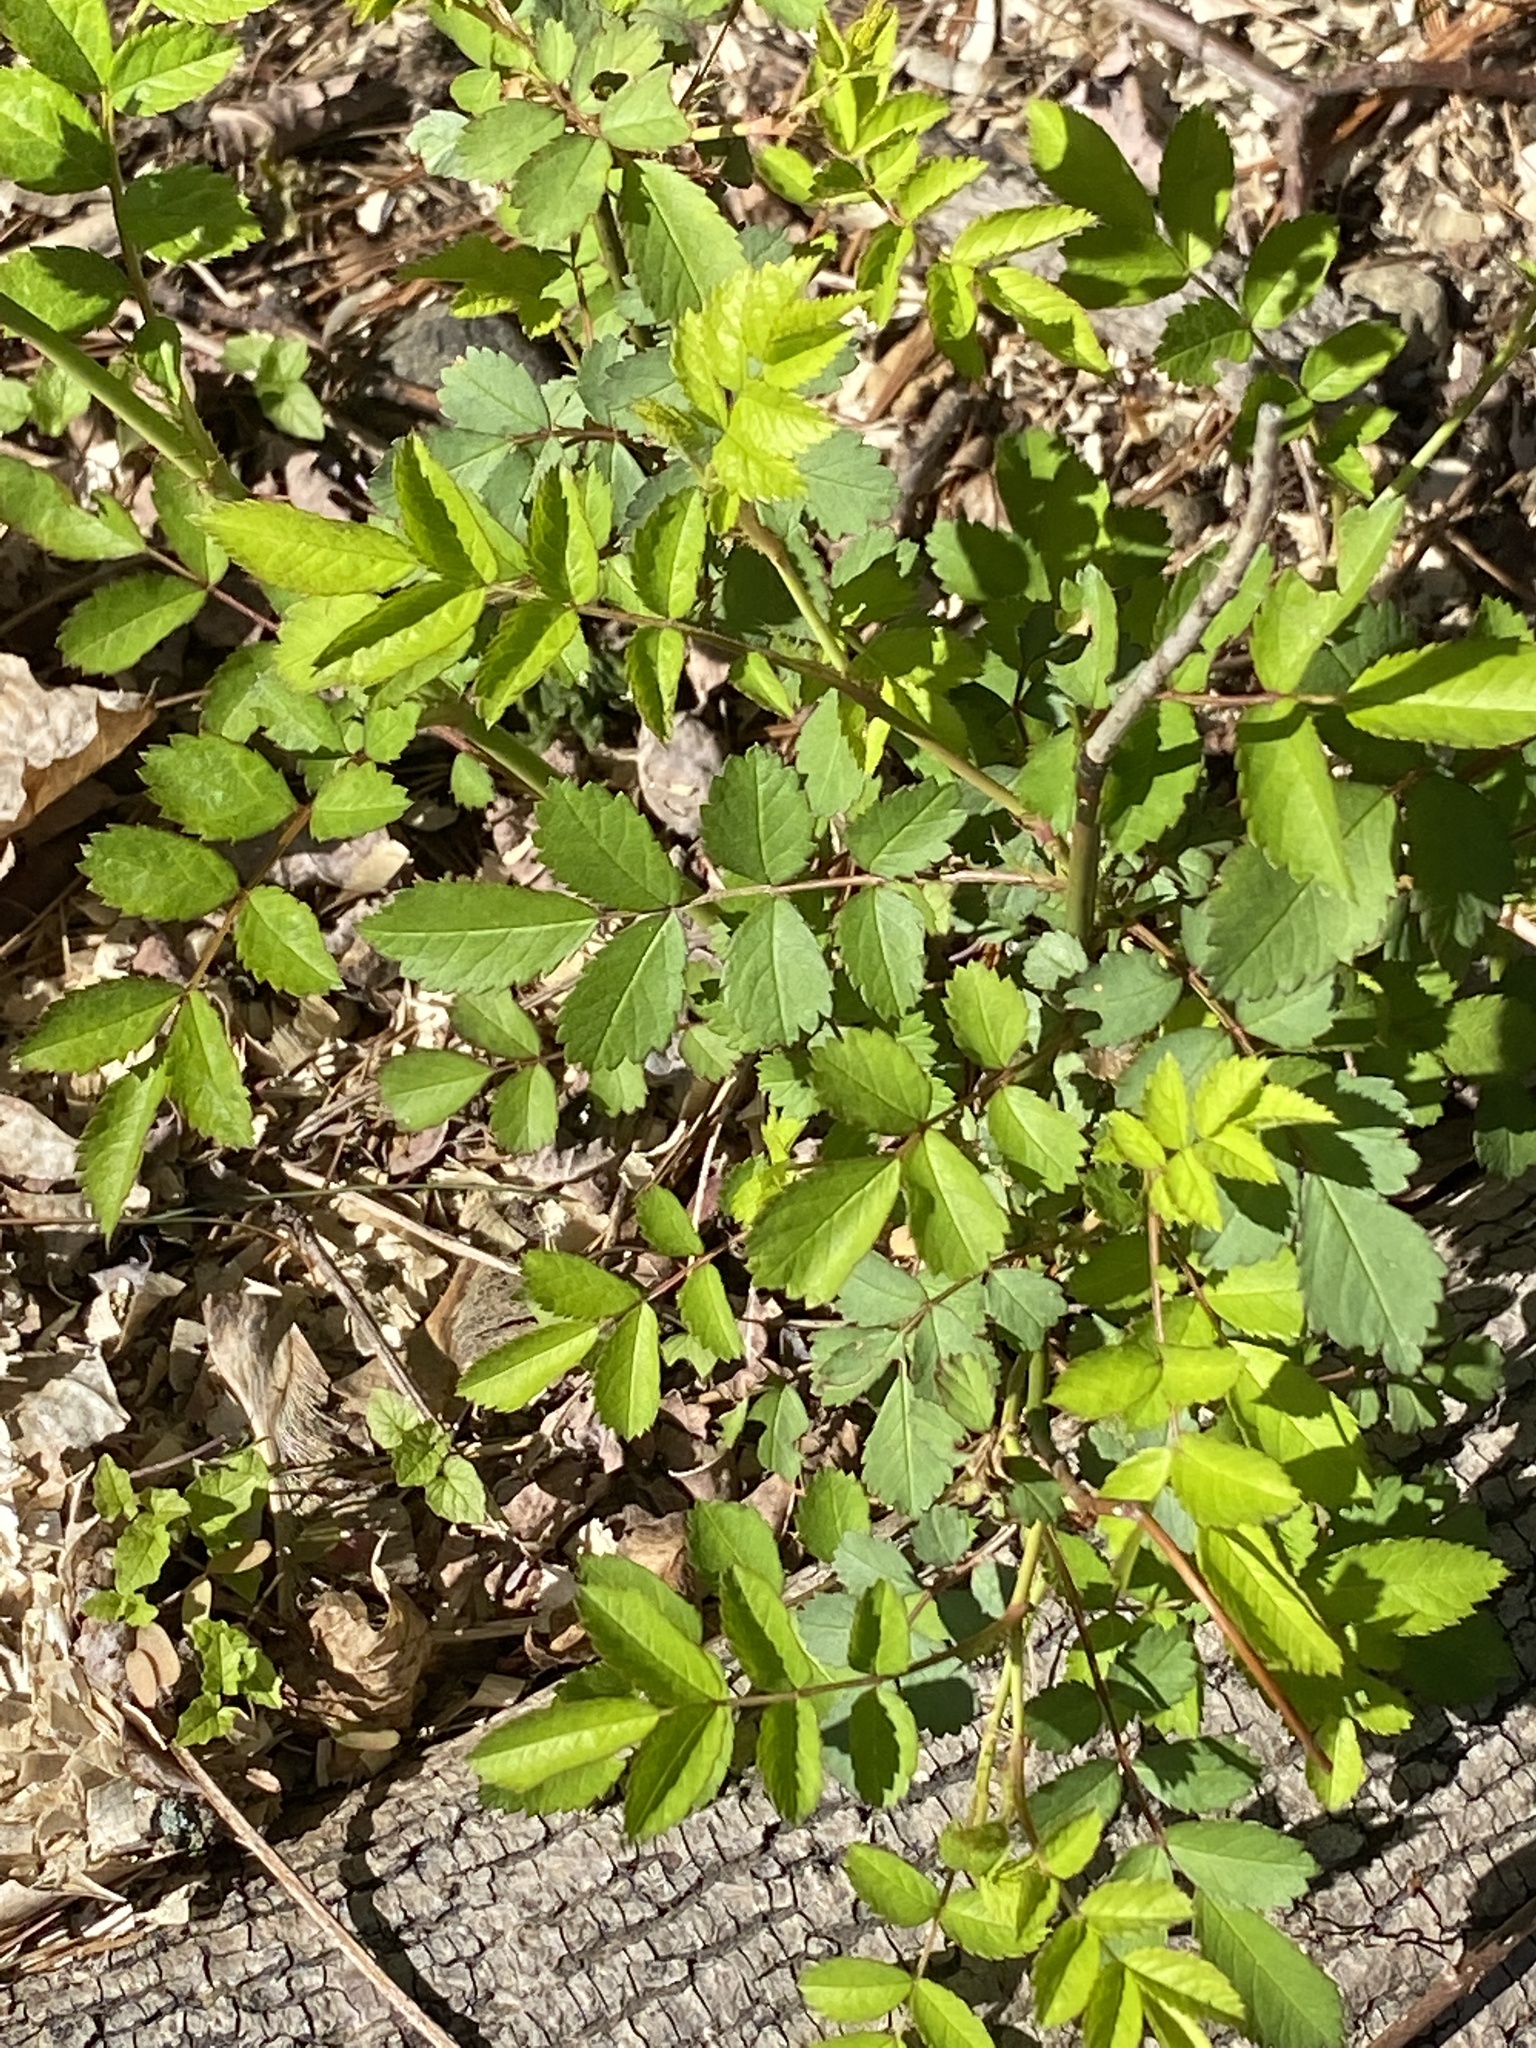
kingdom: Plantae
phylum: Tracheophyta
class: Magnoliopsida
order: Rosales
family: Rosaceae
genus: Rosa
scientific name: Rosa multiflora
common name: Multiflora rose
